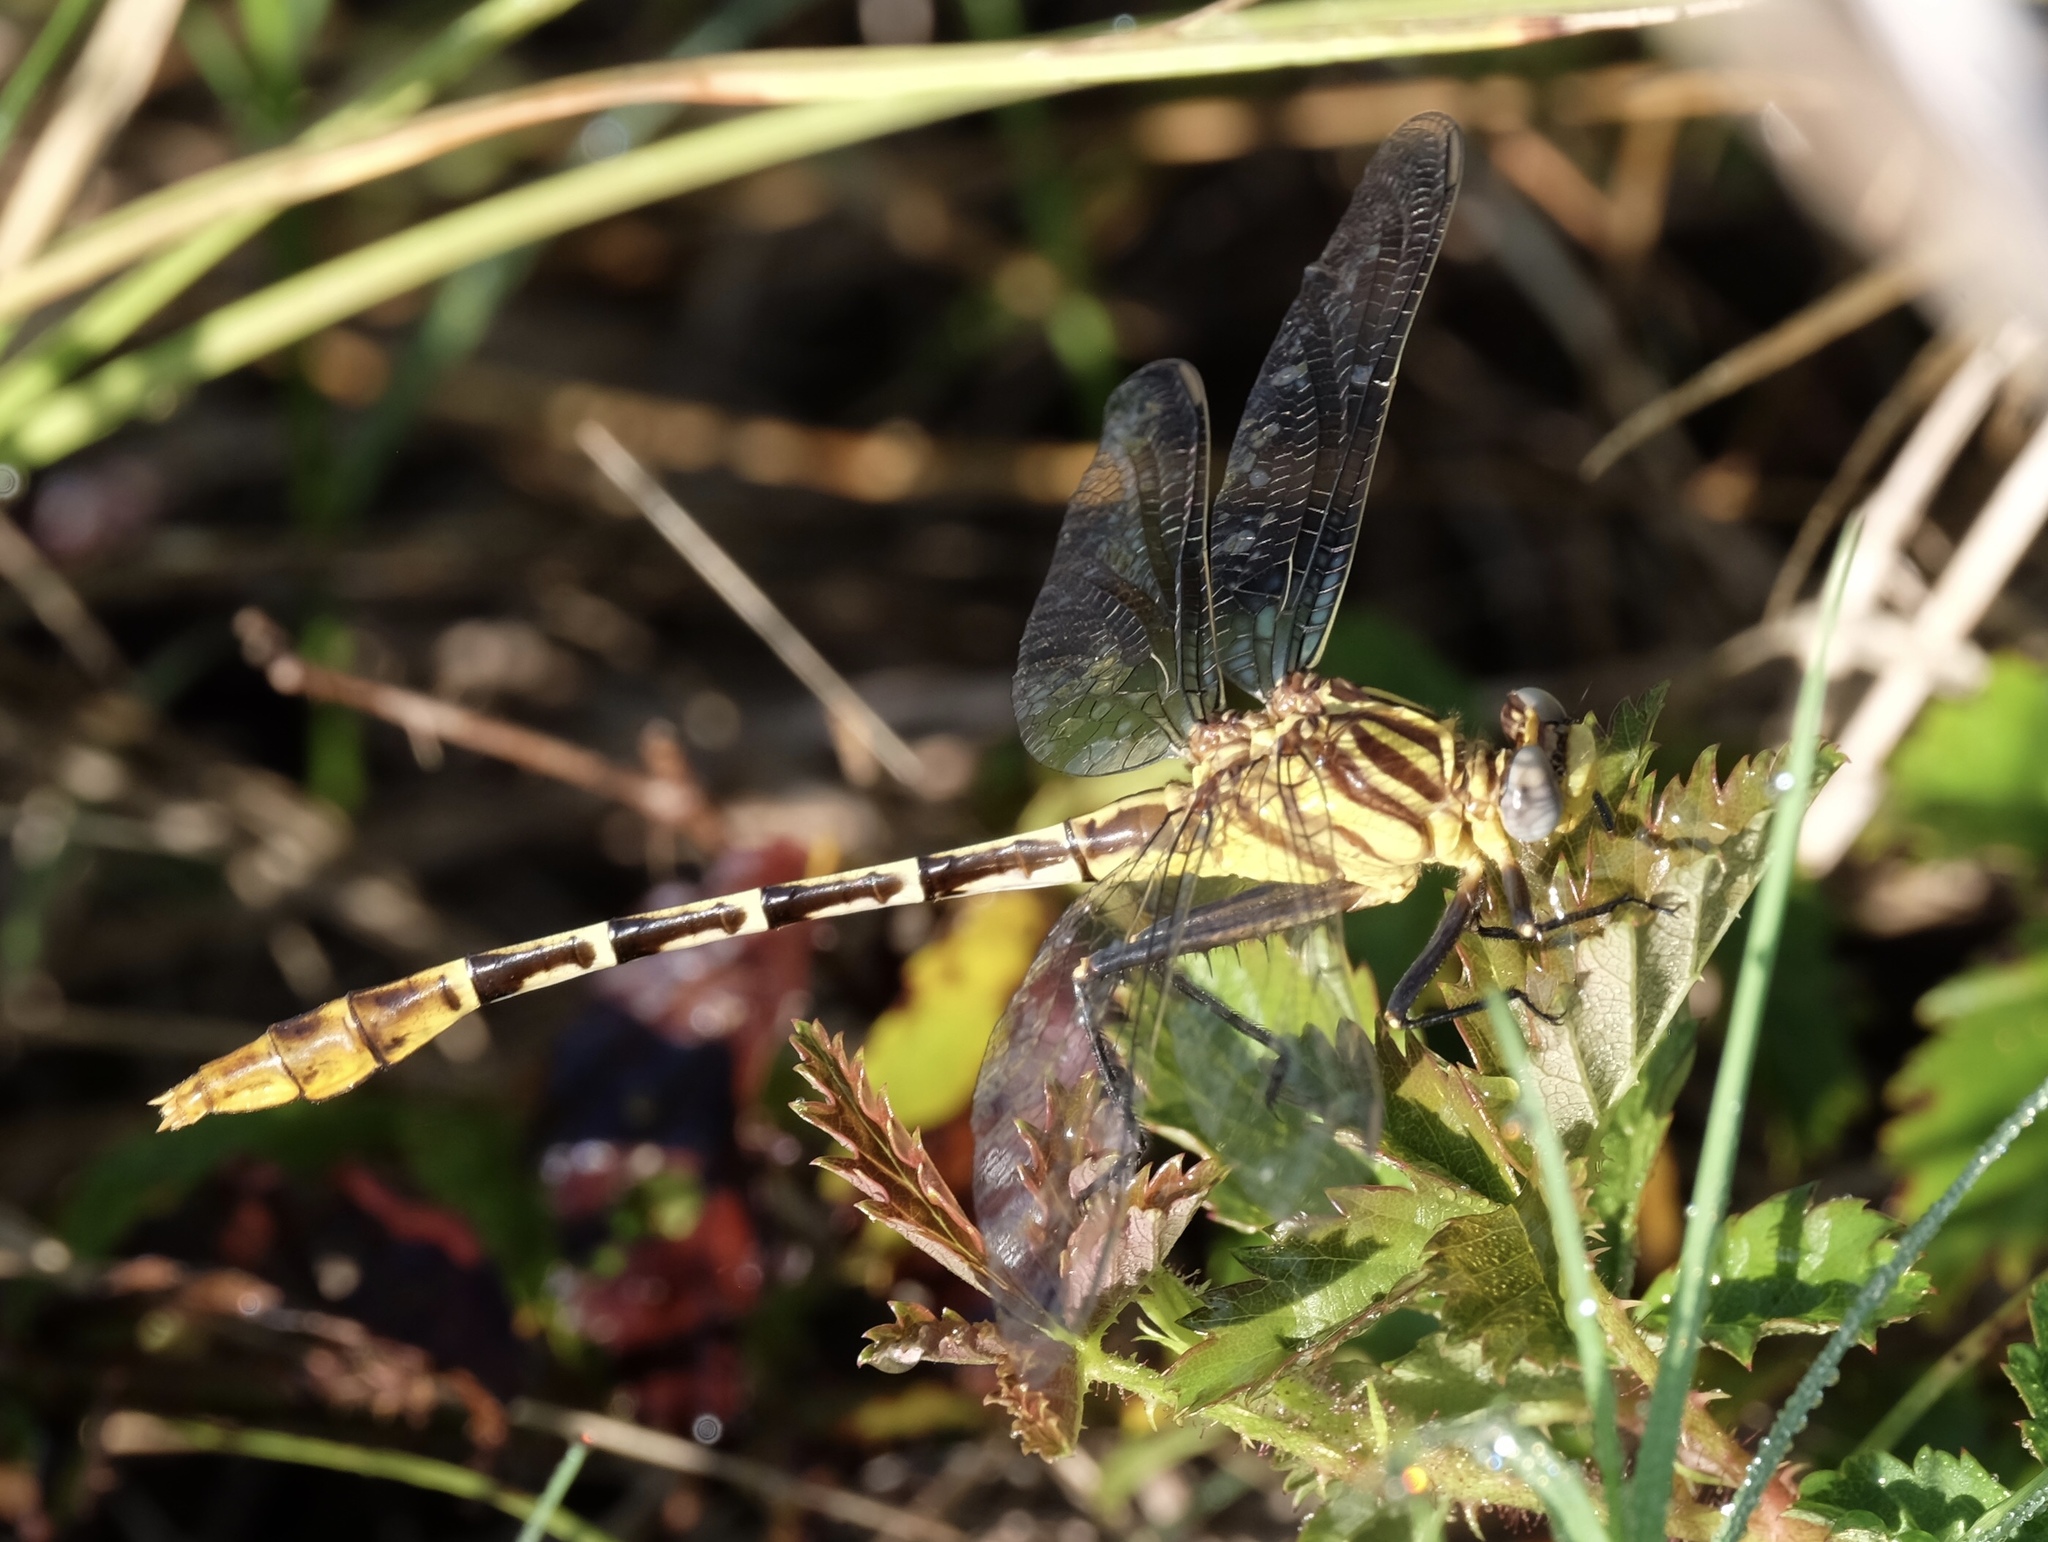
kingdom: Animalia
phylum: Arthropoda
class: Insecta
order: Odonata
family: Gomphidae
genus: Dromogomphus
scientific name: Dromogomphus spoliatus
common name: Flag-tailed spinyleg
